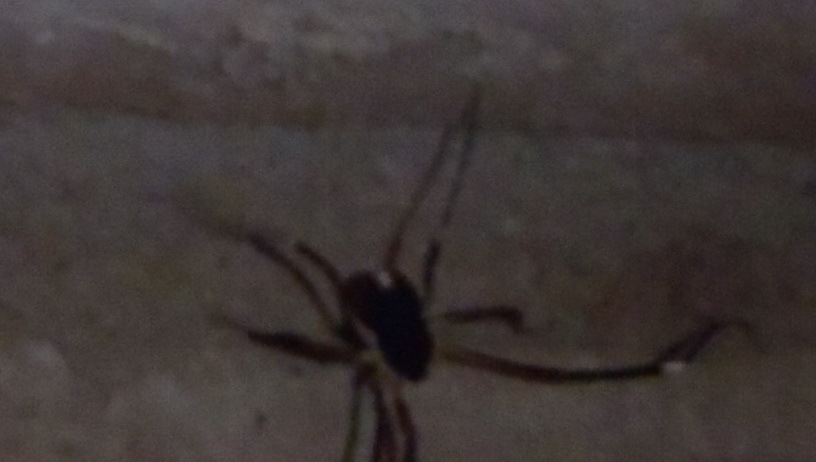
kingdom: Animalia
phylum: Arthropoda
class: Arachnida
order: Opiliones
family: Globipedidae
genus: Dalquestia
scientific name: Dalquestia formosa
